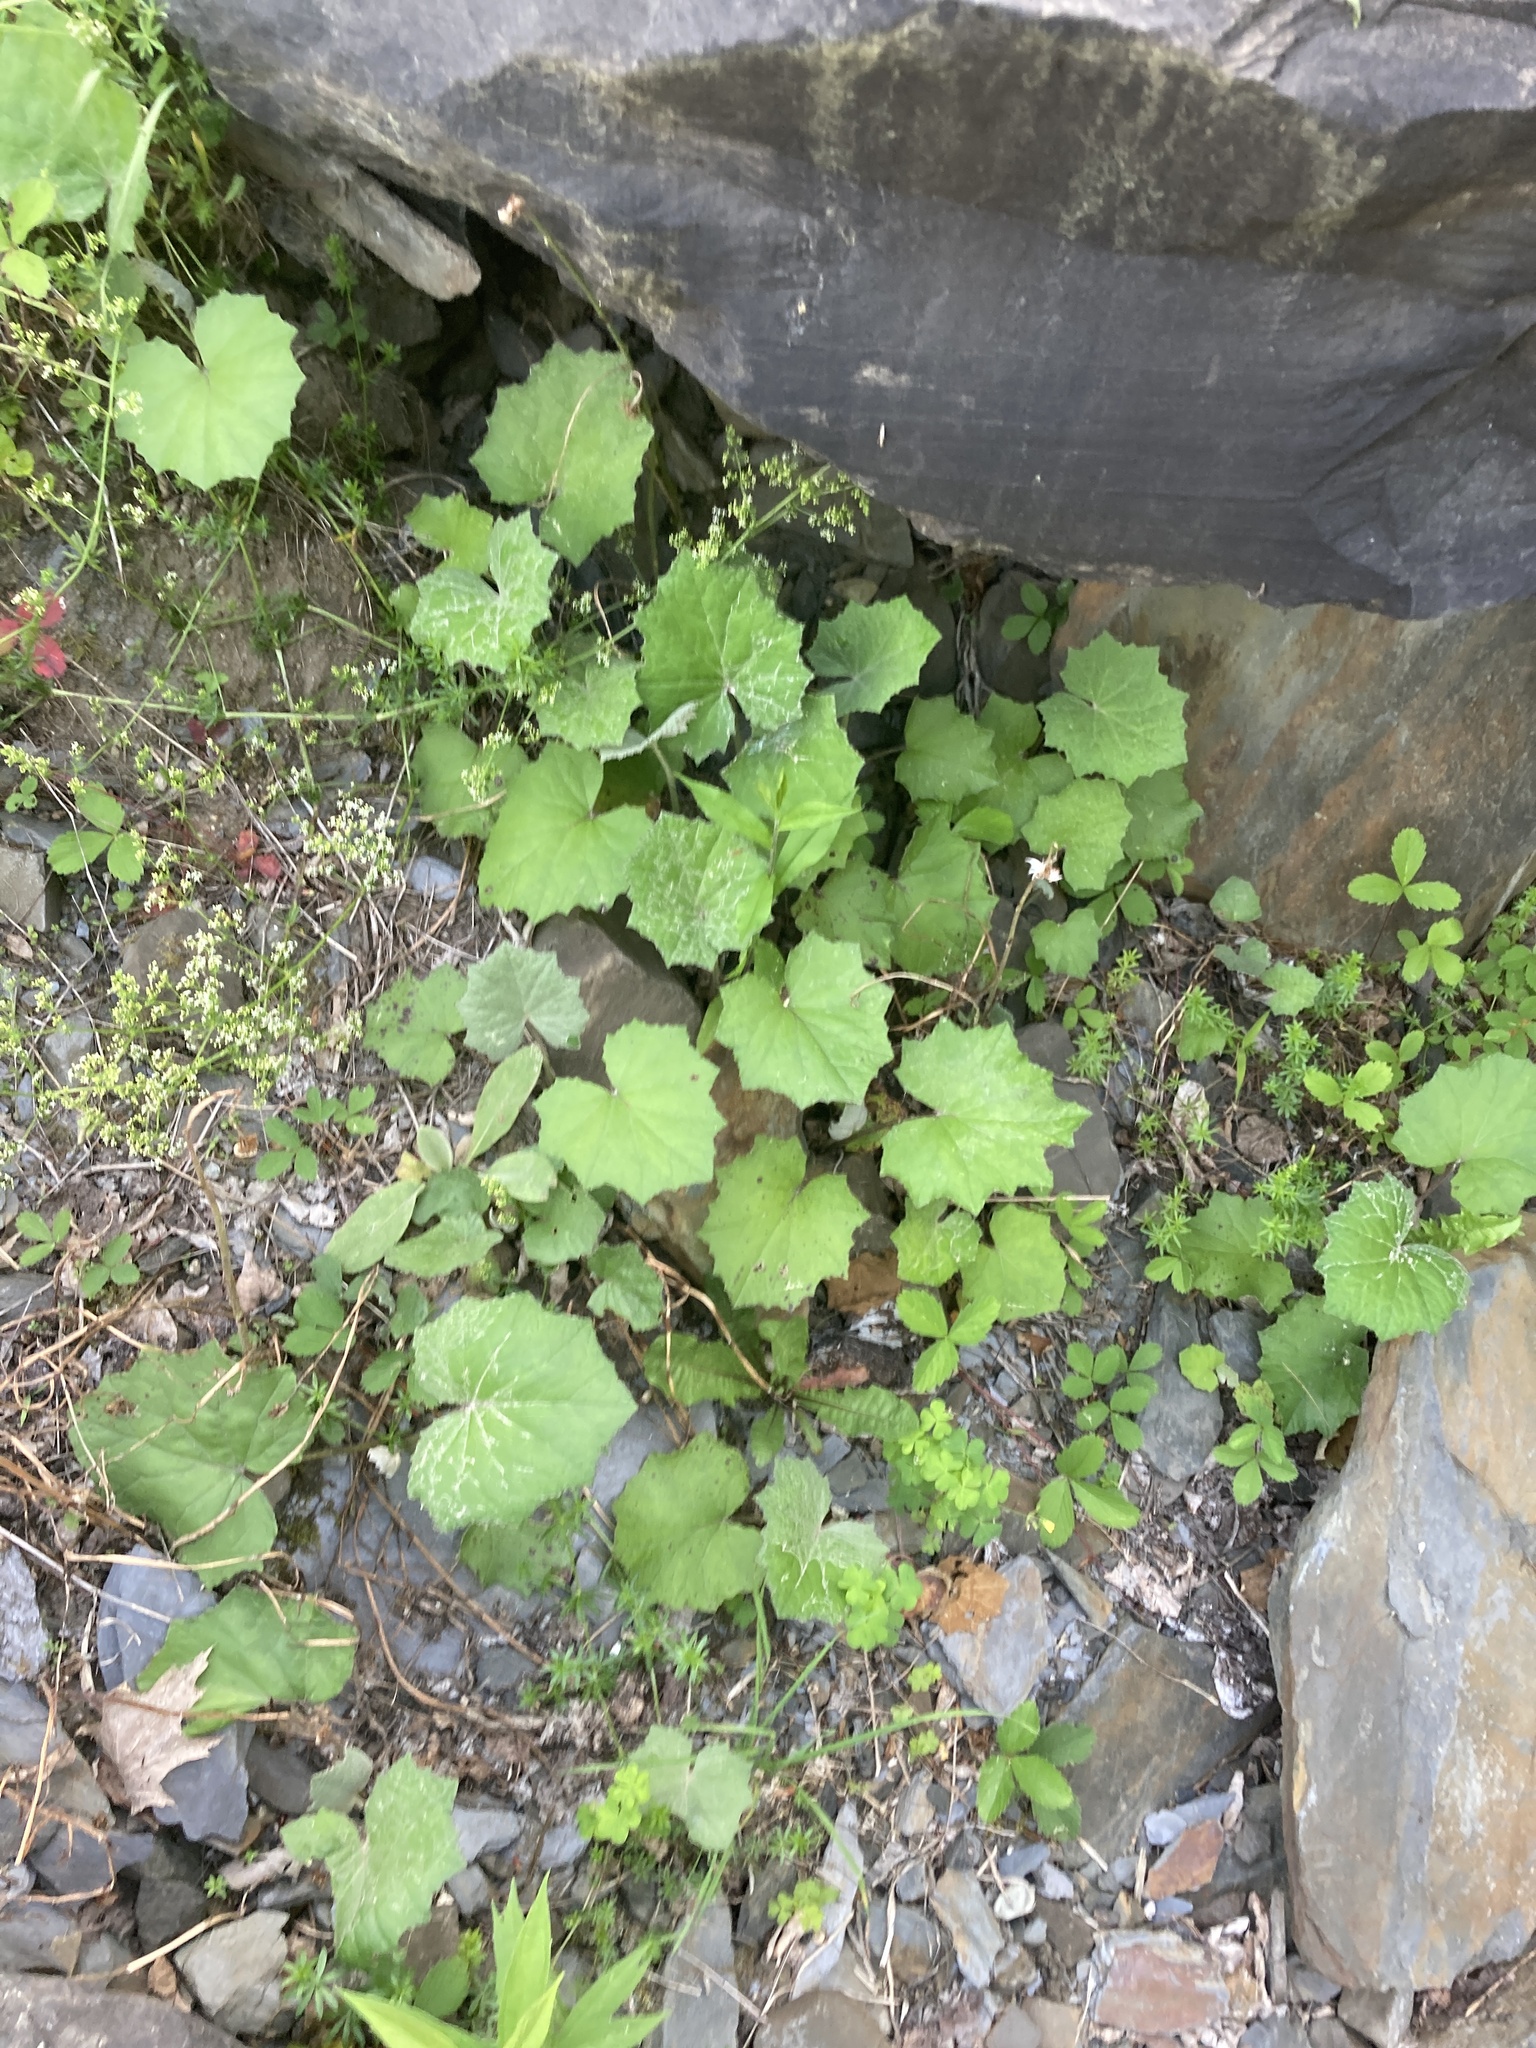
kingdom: Plantae
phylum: Tracheophyta
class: Magnoliopsida
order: Asterales
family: Asteraceae
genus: Tussilago
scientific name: Tussilago farfara
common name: Coltsfoot
